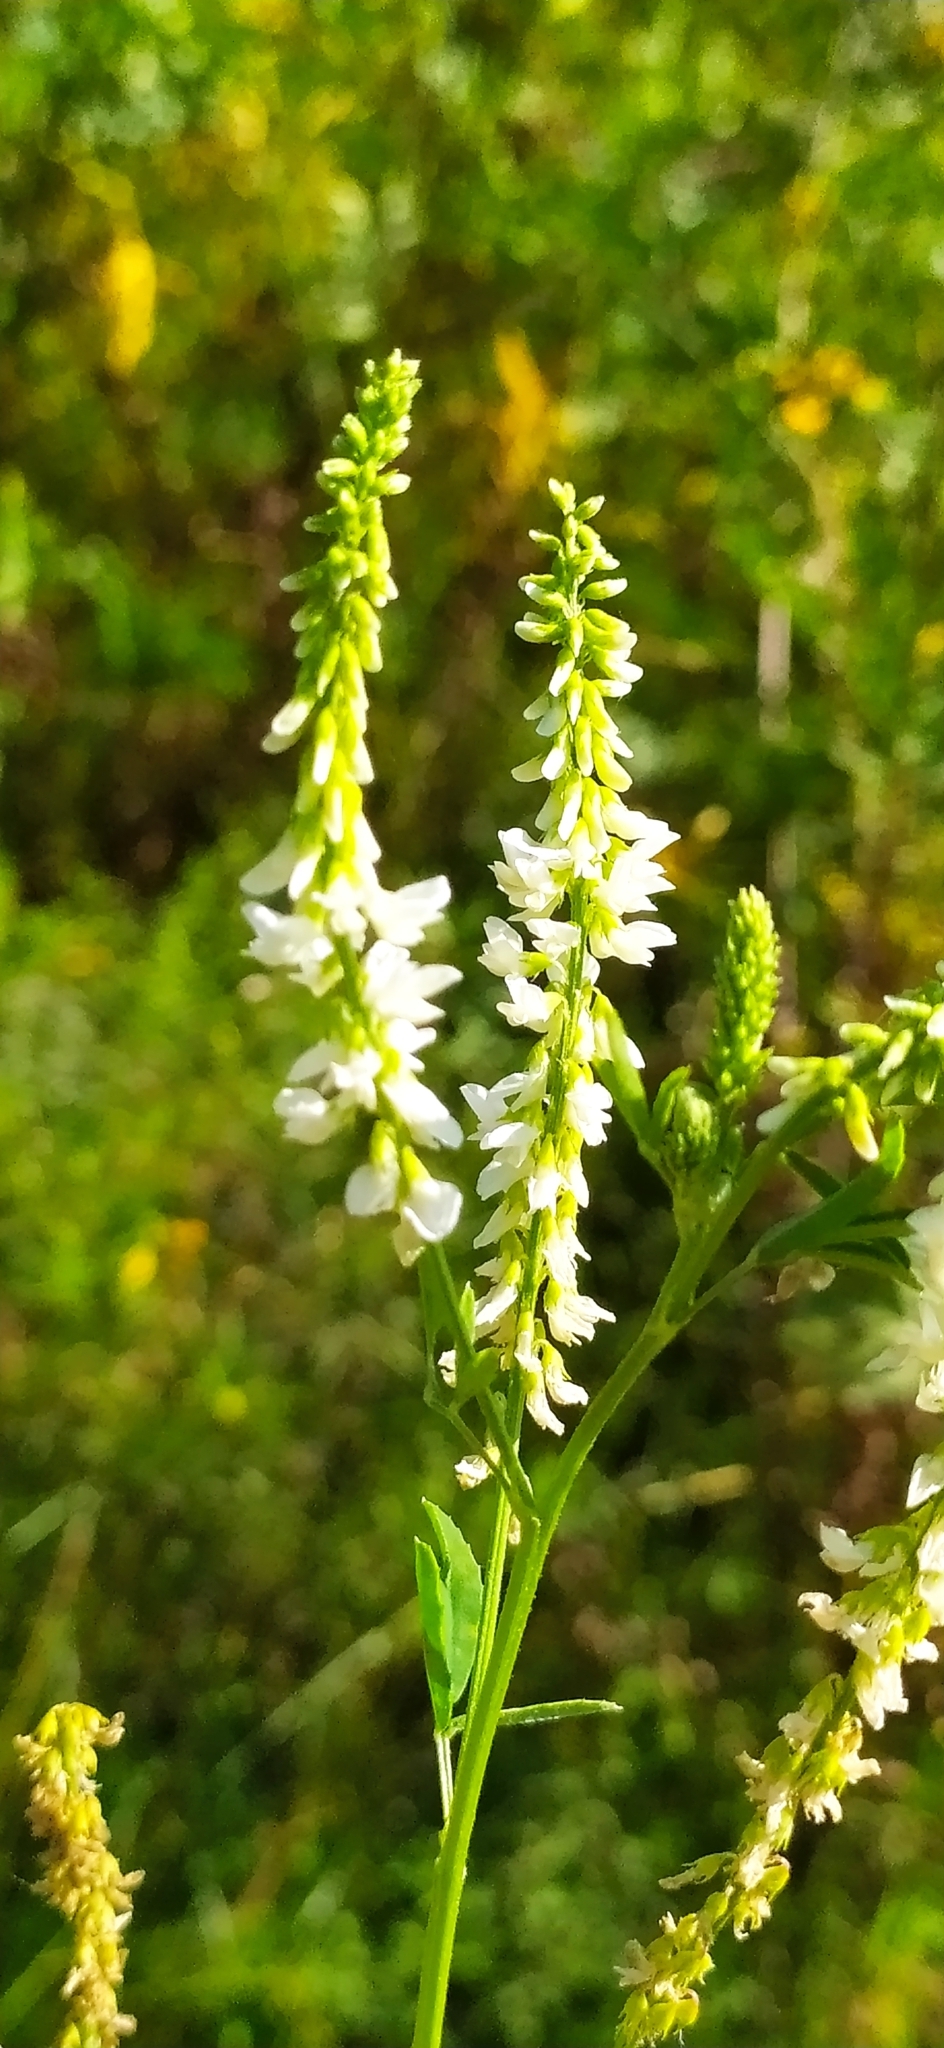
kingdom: Plantae
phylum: Tracheophyta
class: Magnoliopsida
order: Fabales
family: Fabaceae
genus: Melilotus
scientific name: Melilotus albus
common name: White melilot
